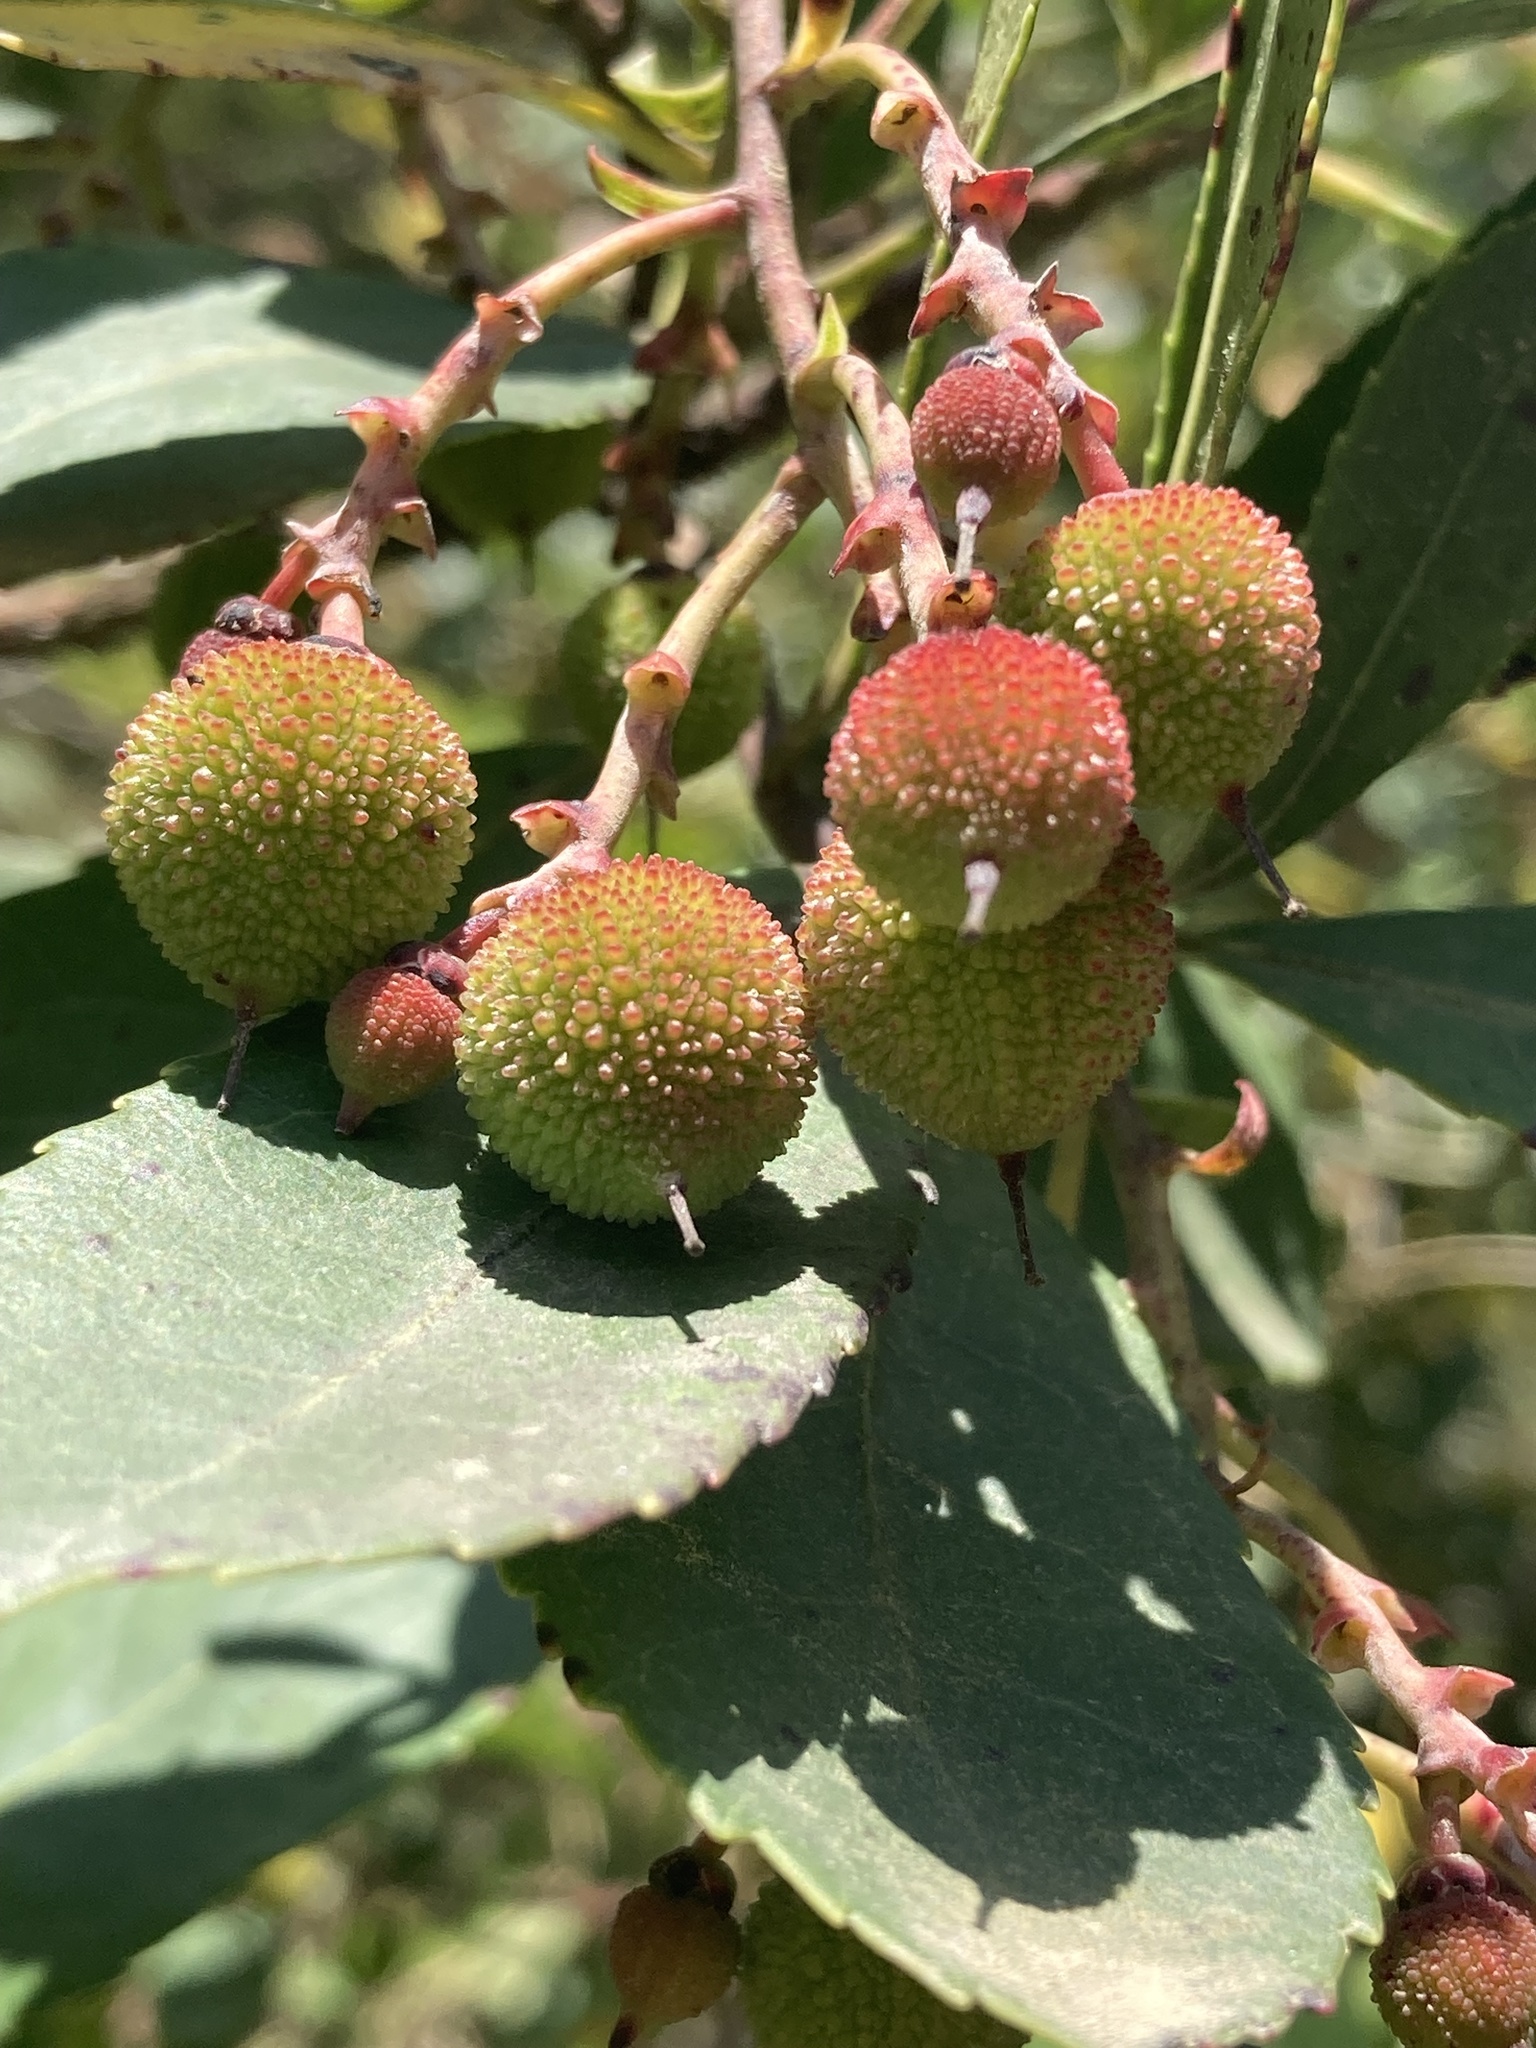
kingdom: Plantae
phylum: Tracheophyta
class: Magnoliopsida
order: Ericales
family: Ericaceae
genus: Arbutus
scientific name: Arbutus unedo
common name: Strawberry-tree
